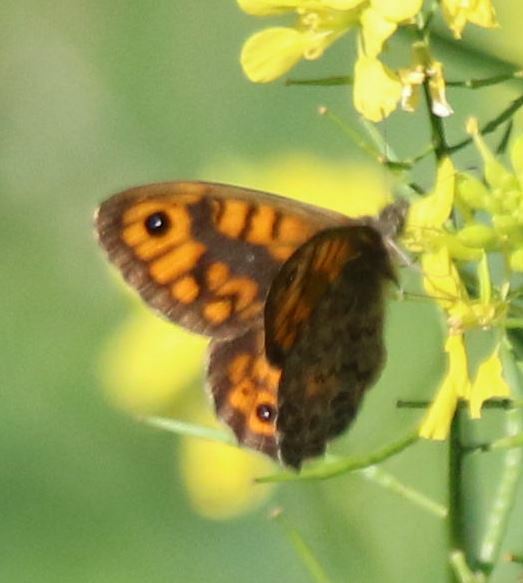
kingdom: Animalia
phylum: Arthropoda
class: Insecta
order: Lepidoptera
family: Nymphalidae
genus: Pararge
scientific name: Pararge Lasiommata megera
